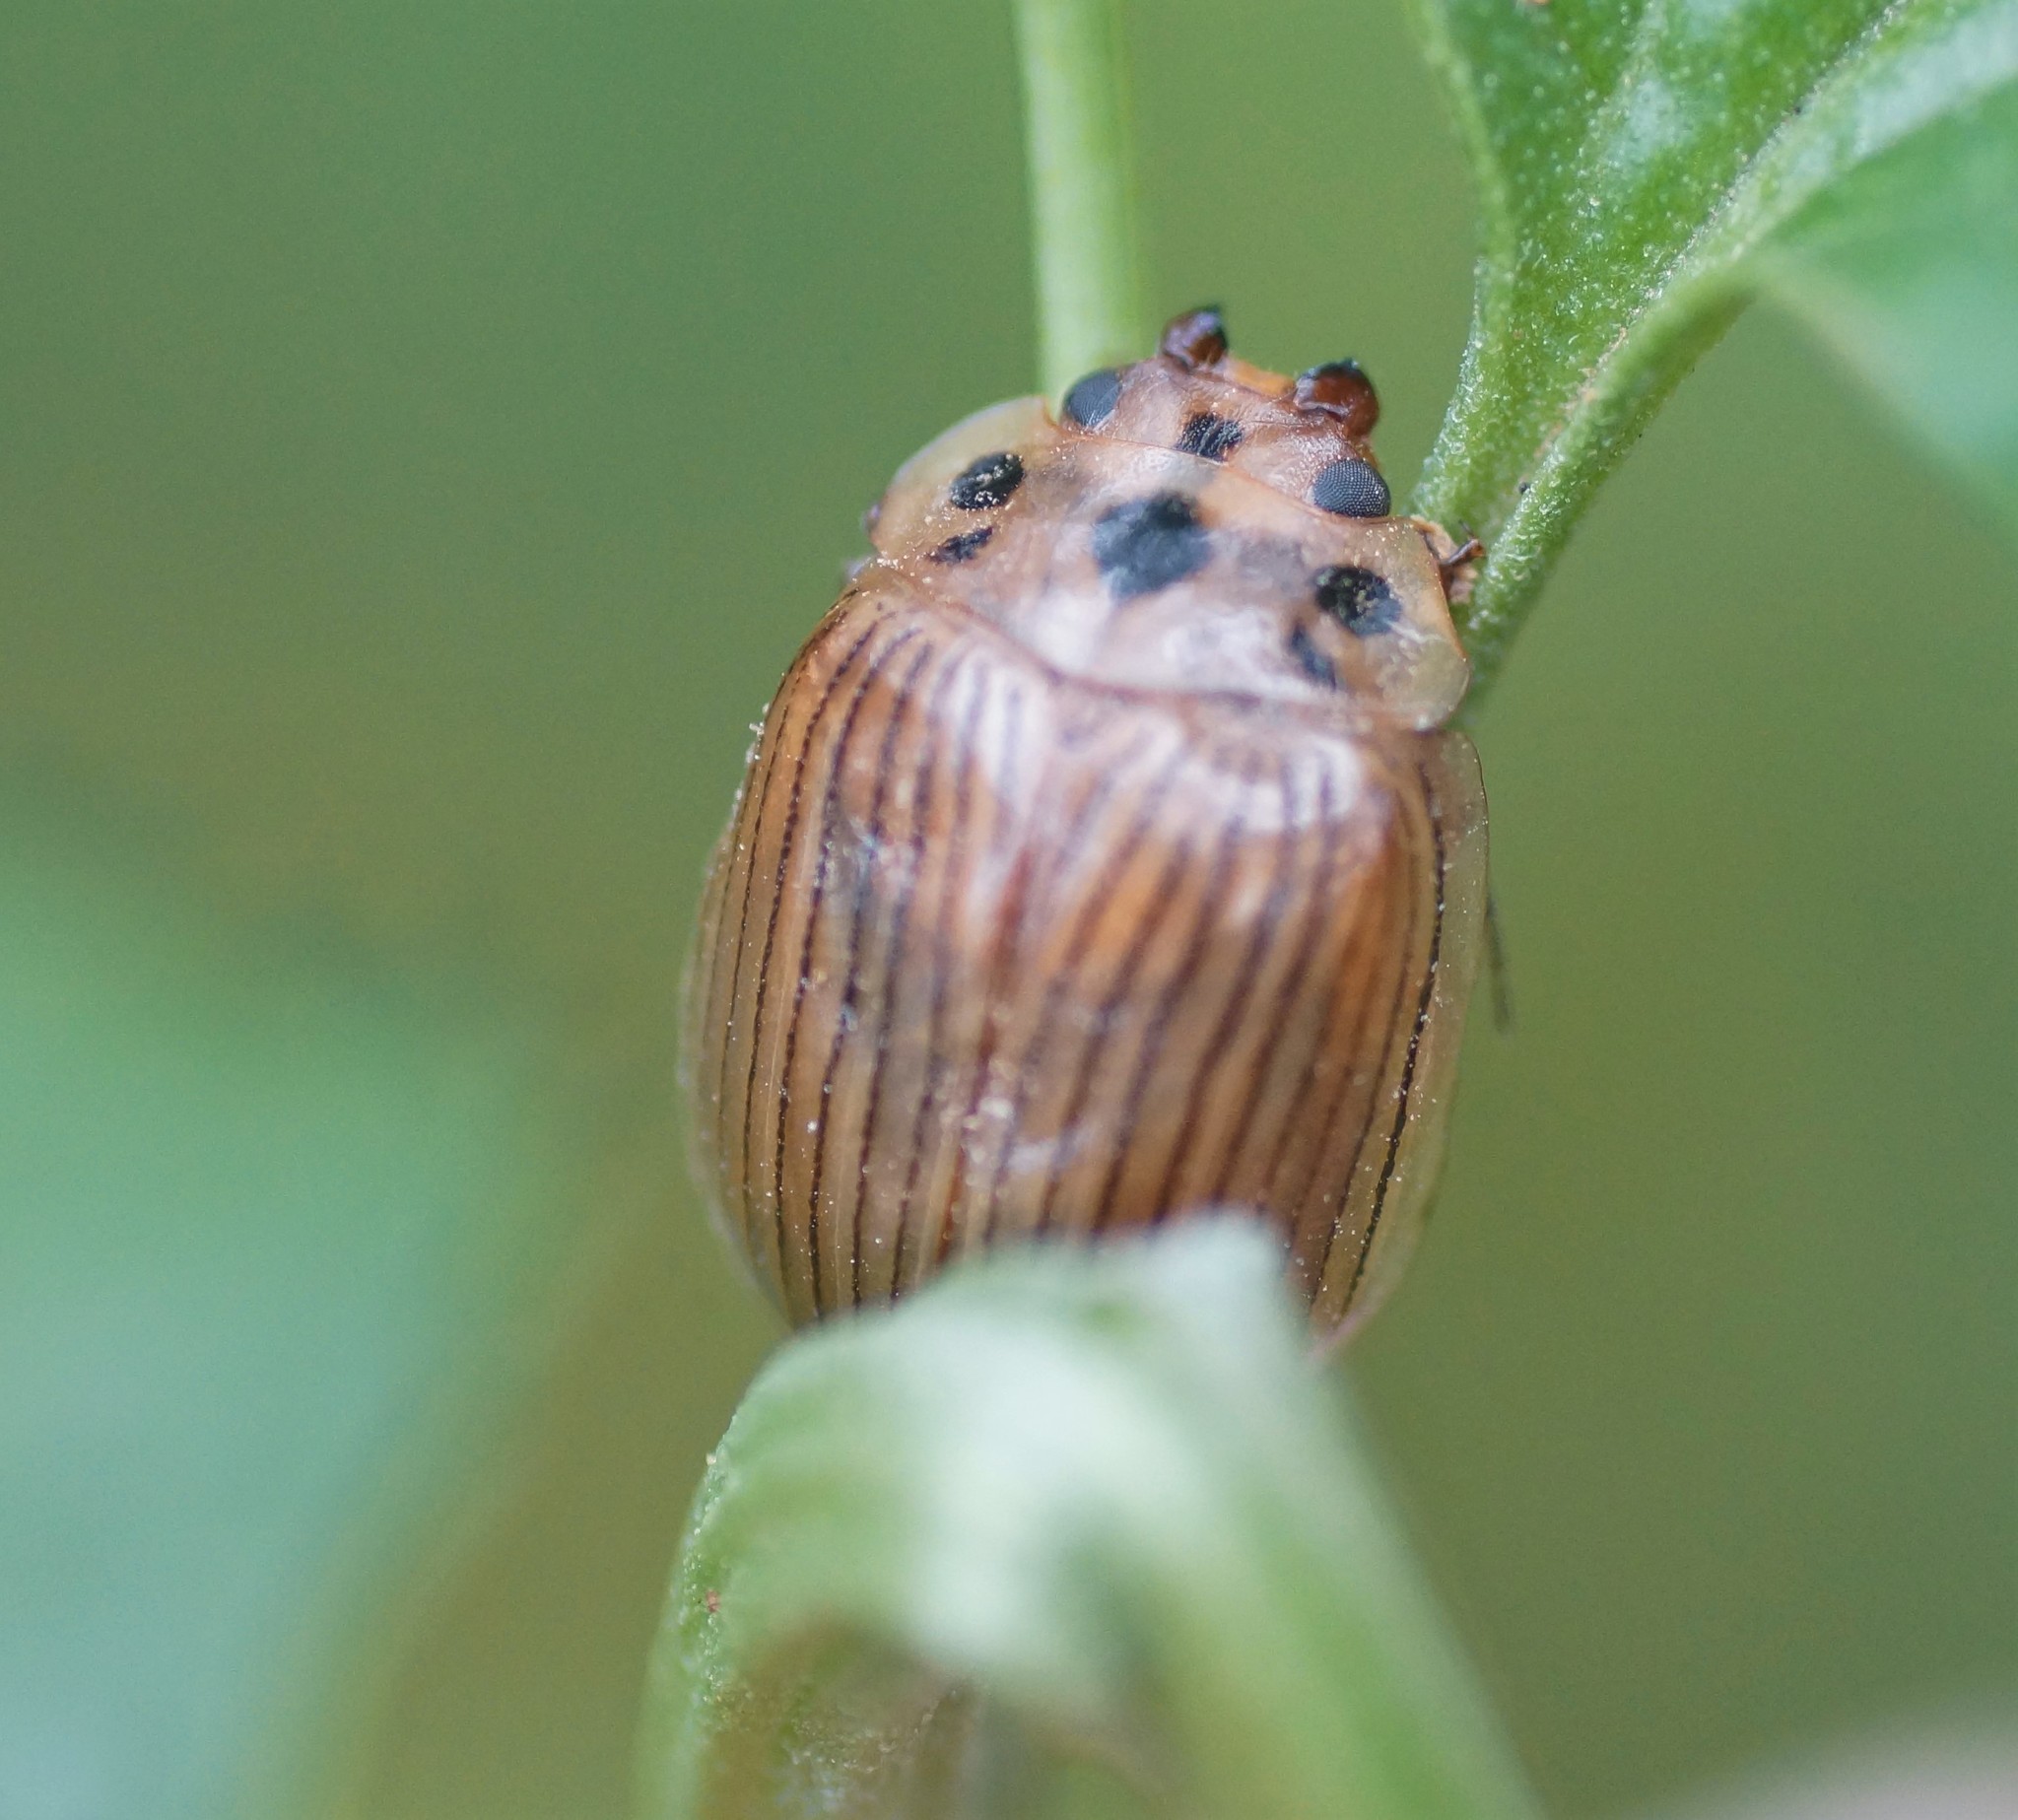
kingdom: Animalia
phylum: Arthropoda
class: Insecta
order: Coleoptera
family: Chrysomelidae
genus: Paropsisterna
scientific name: Paropsisterna
